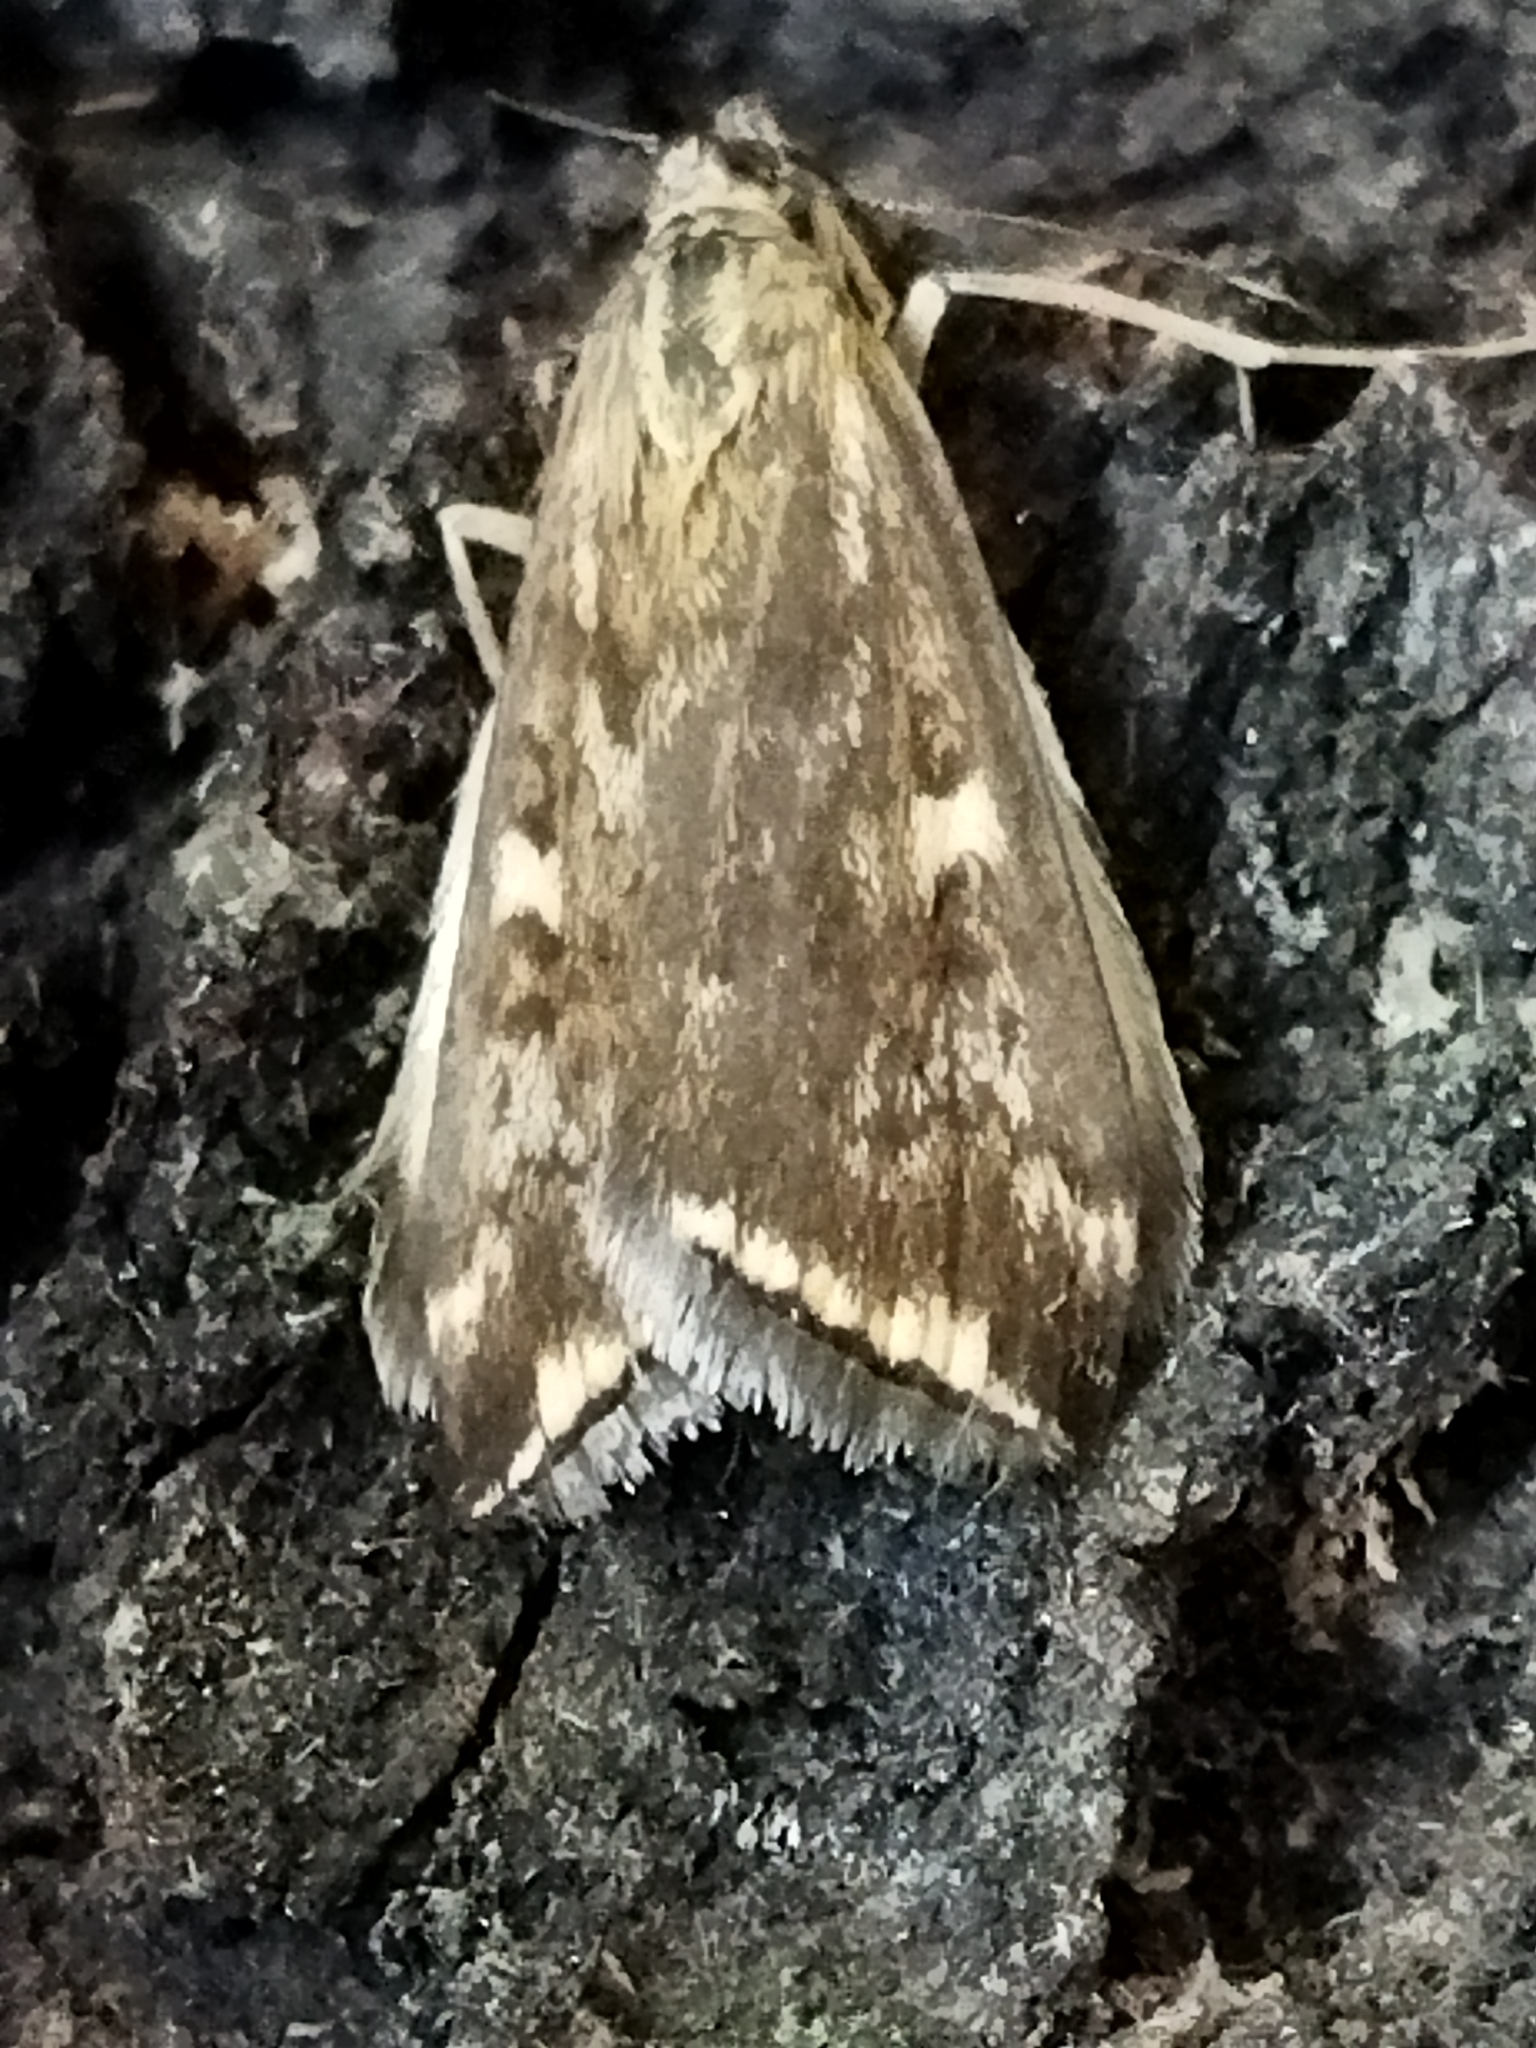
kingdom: Animalia
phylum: Arthropoda
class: Insecta
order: Lepidoptera
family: Crambidae
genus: Loxostege
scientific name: Loxostege sticticalis
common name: Crambid moth
